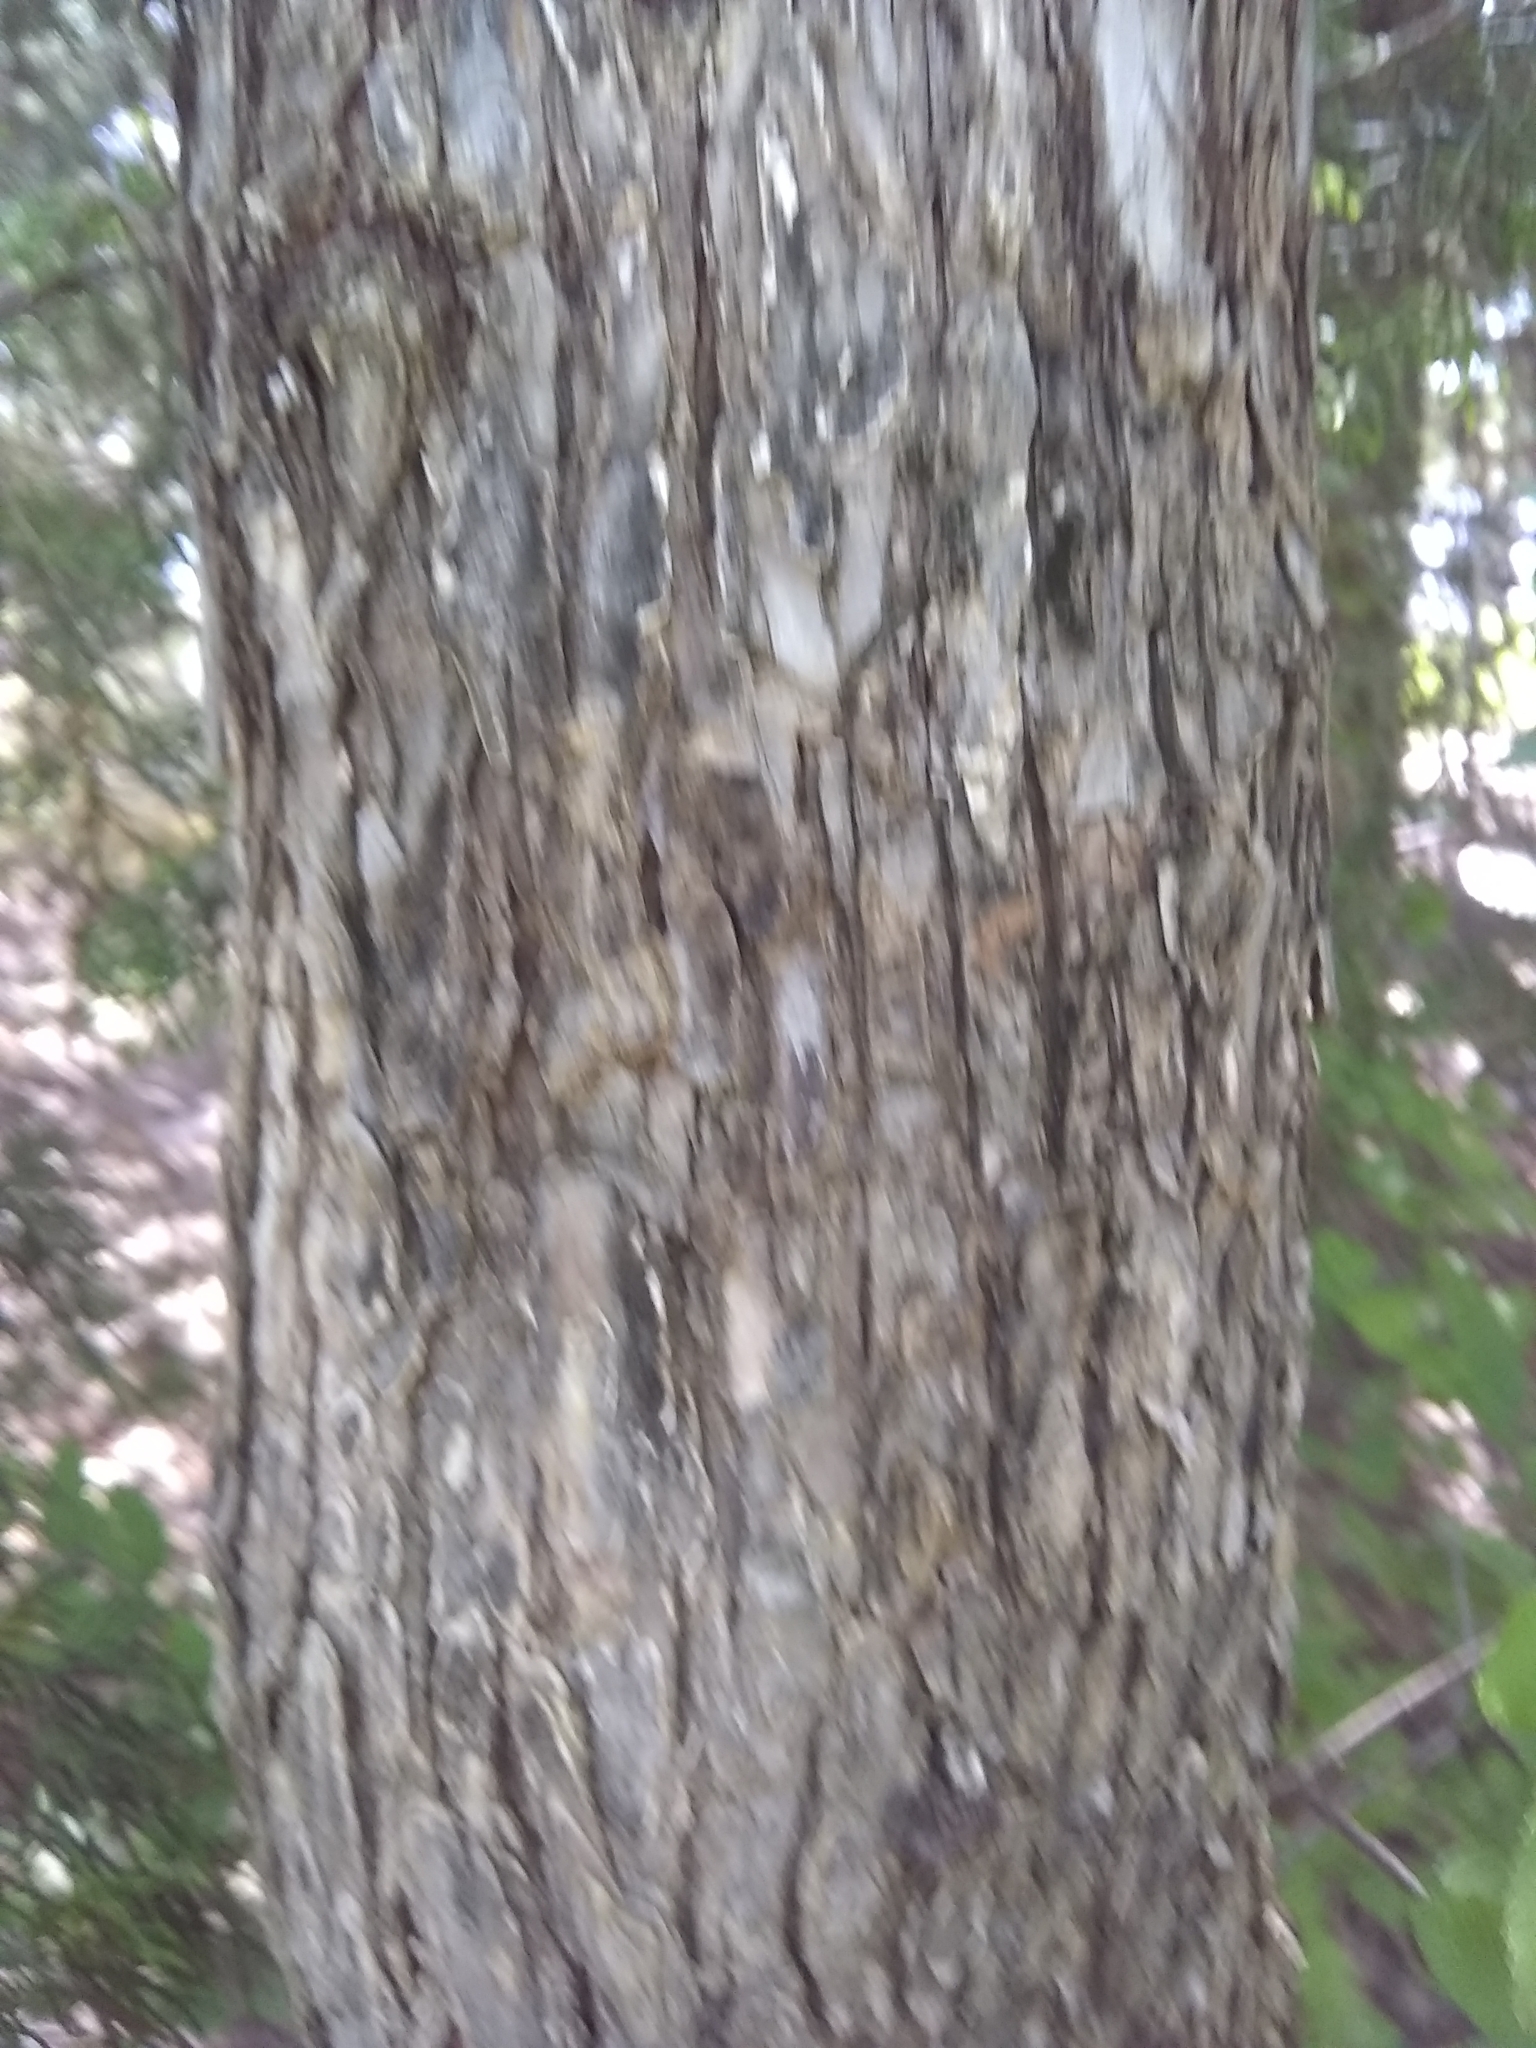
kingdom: Plantae
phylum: Tracheophyta
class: Magnoliopsida
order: Rosales
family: Ulmaceae
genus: Ulmus
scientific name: Ulmus crassifolia
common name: Basket elm
